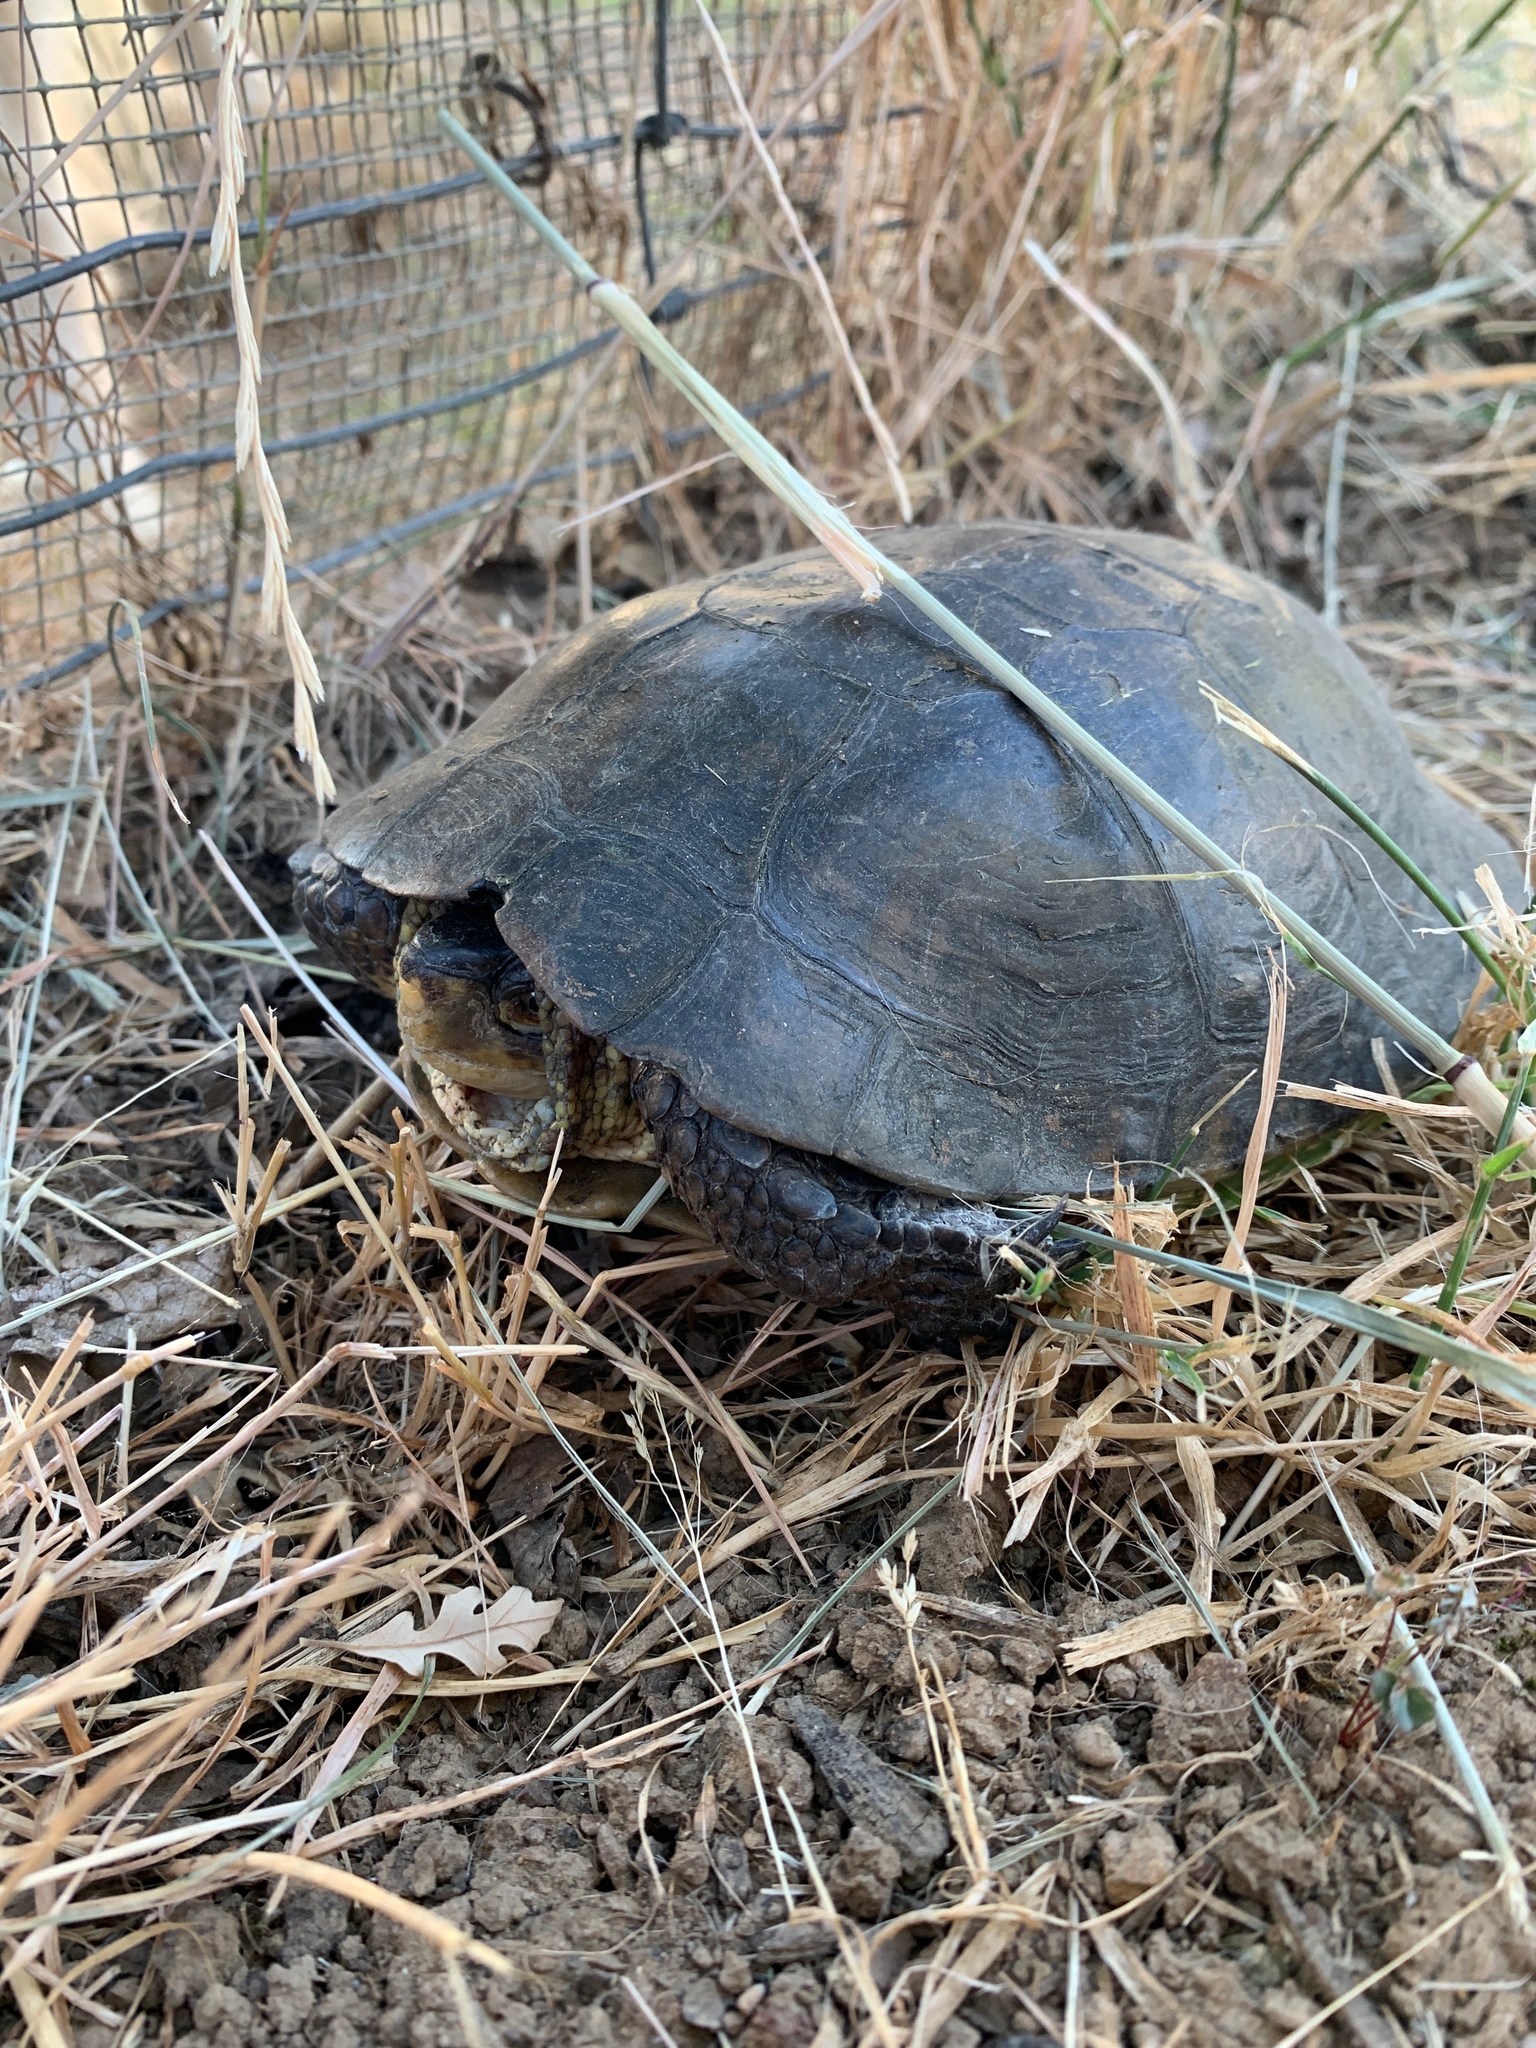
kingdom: Animalia
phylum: Chordata
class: Testudines
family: Emydidae
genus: Actinemys
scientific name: Actinemys marmorata
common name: Western pond turtle
